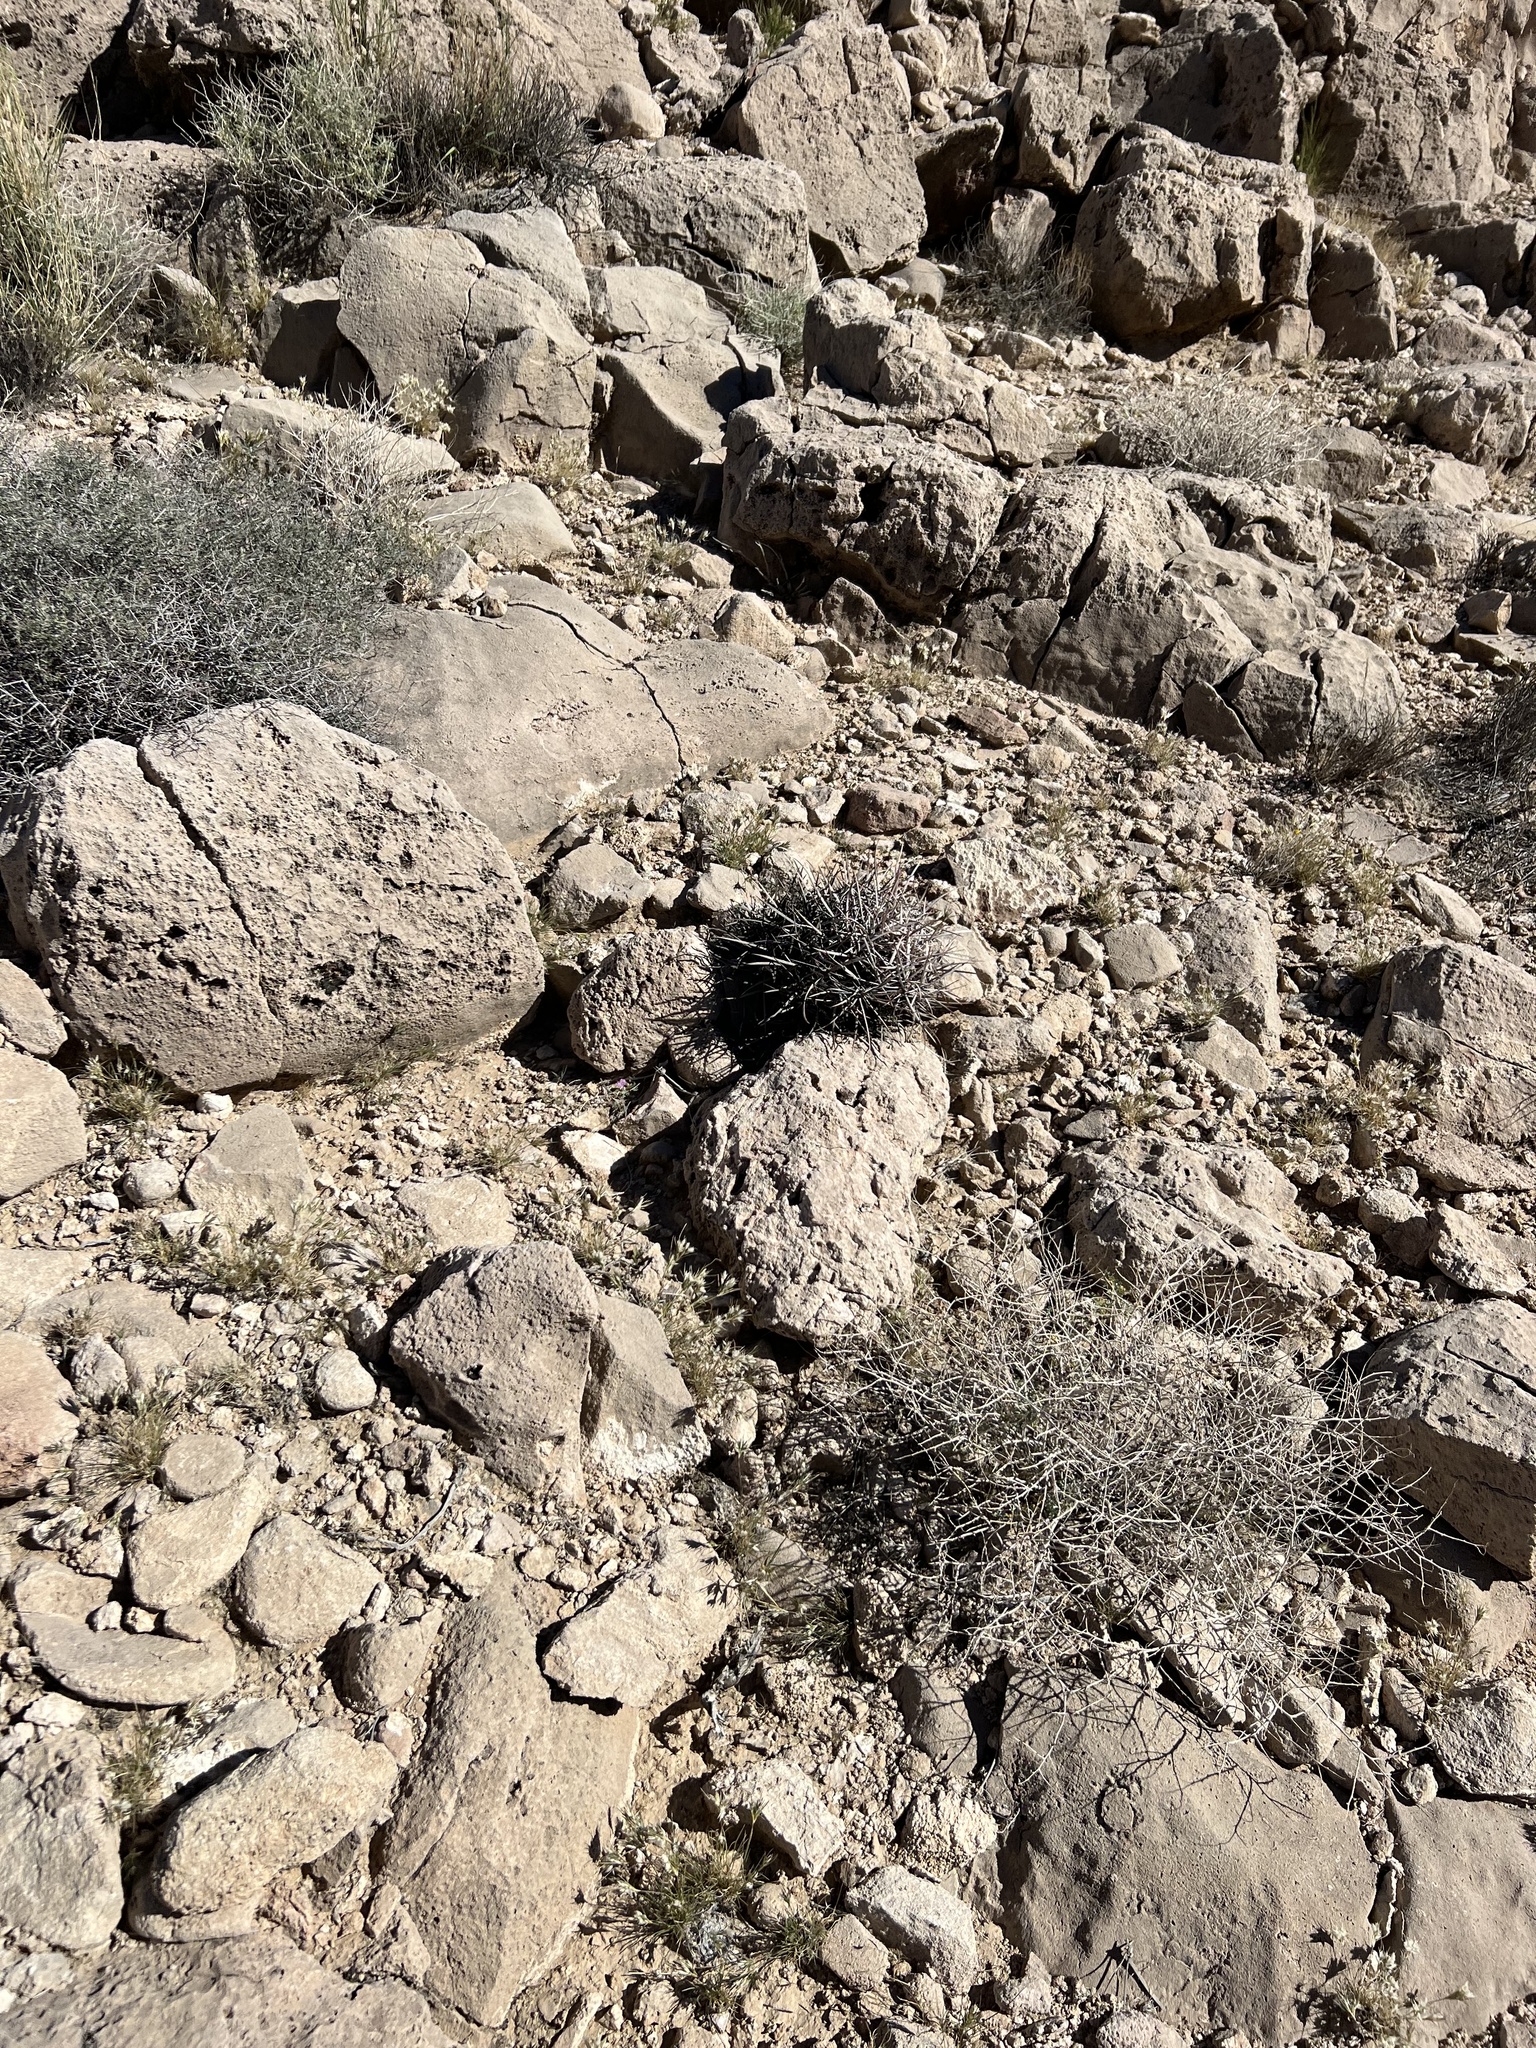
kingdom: Plantae
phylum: Tracheophyta
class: Magnoliopsida
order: Caryophyllales
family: Cactaceae
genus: Echinocactus
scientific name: Echinocactus polycephalus
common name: Cottontop cactus
